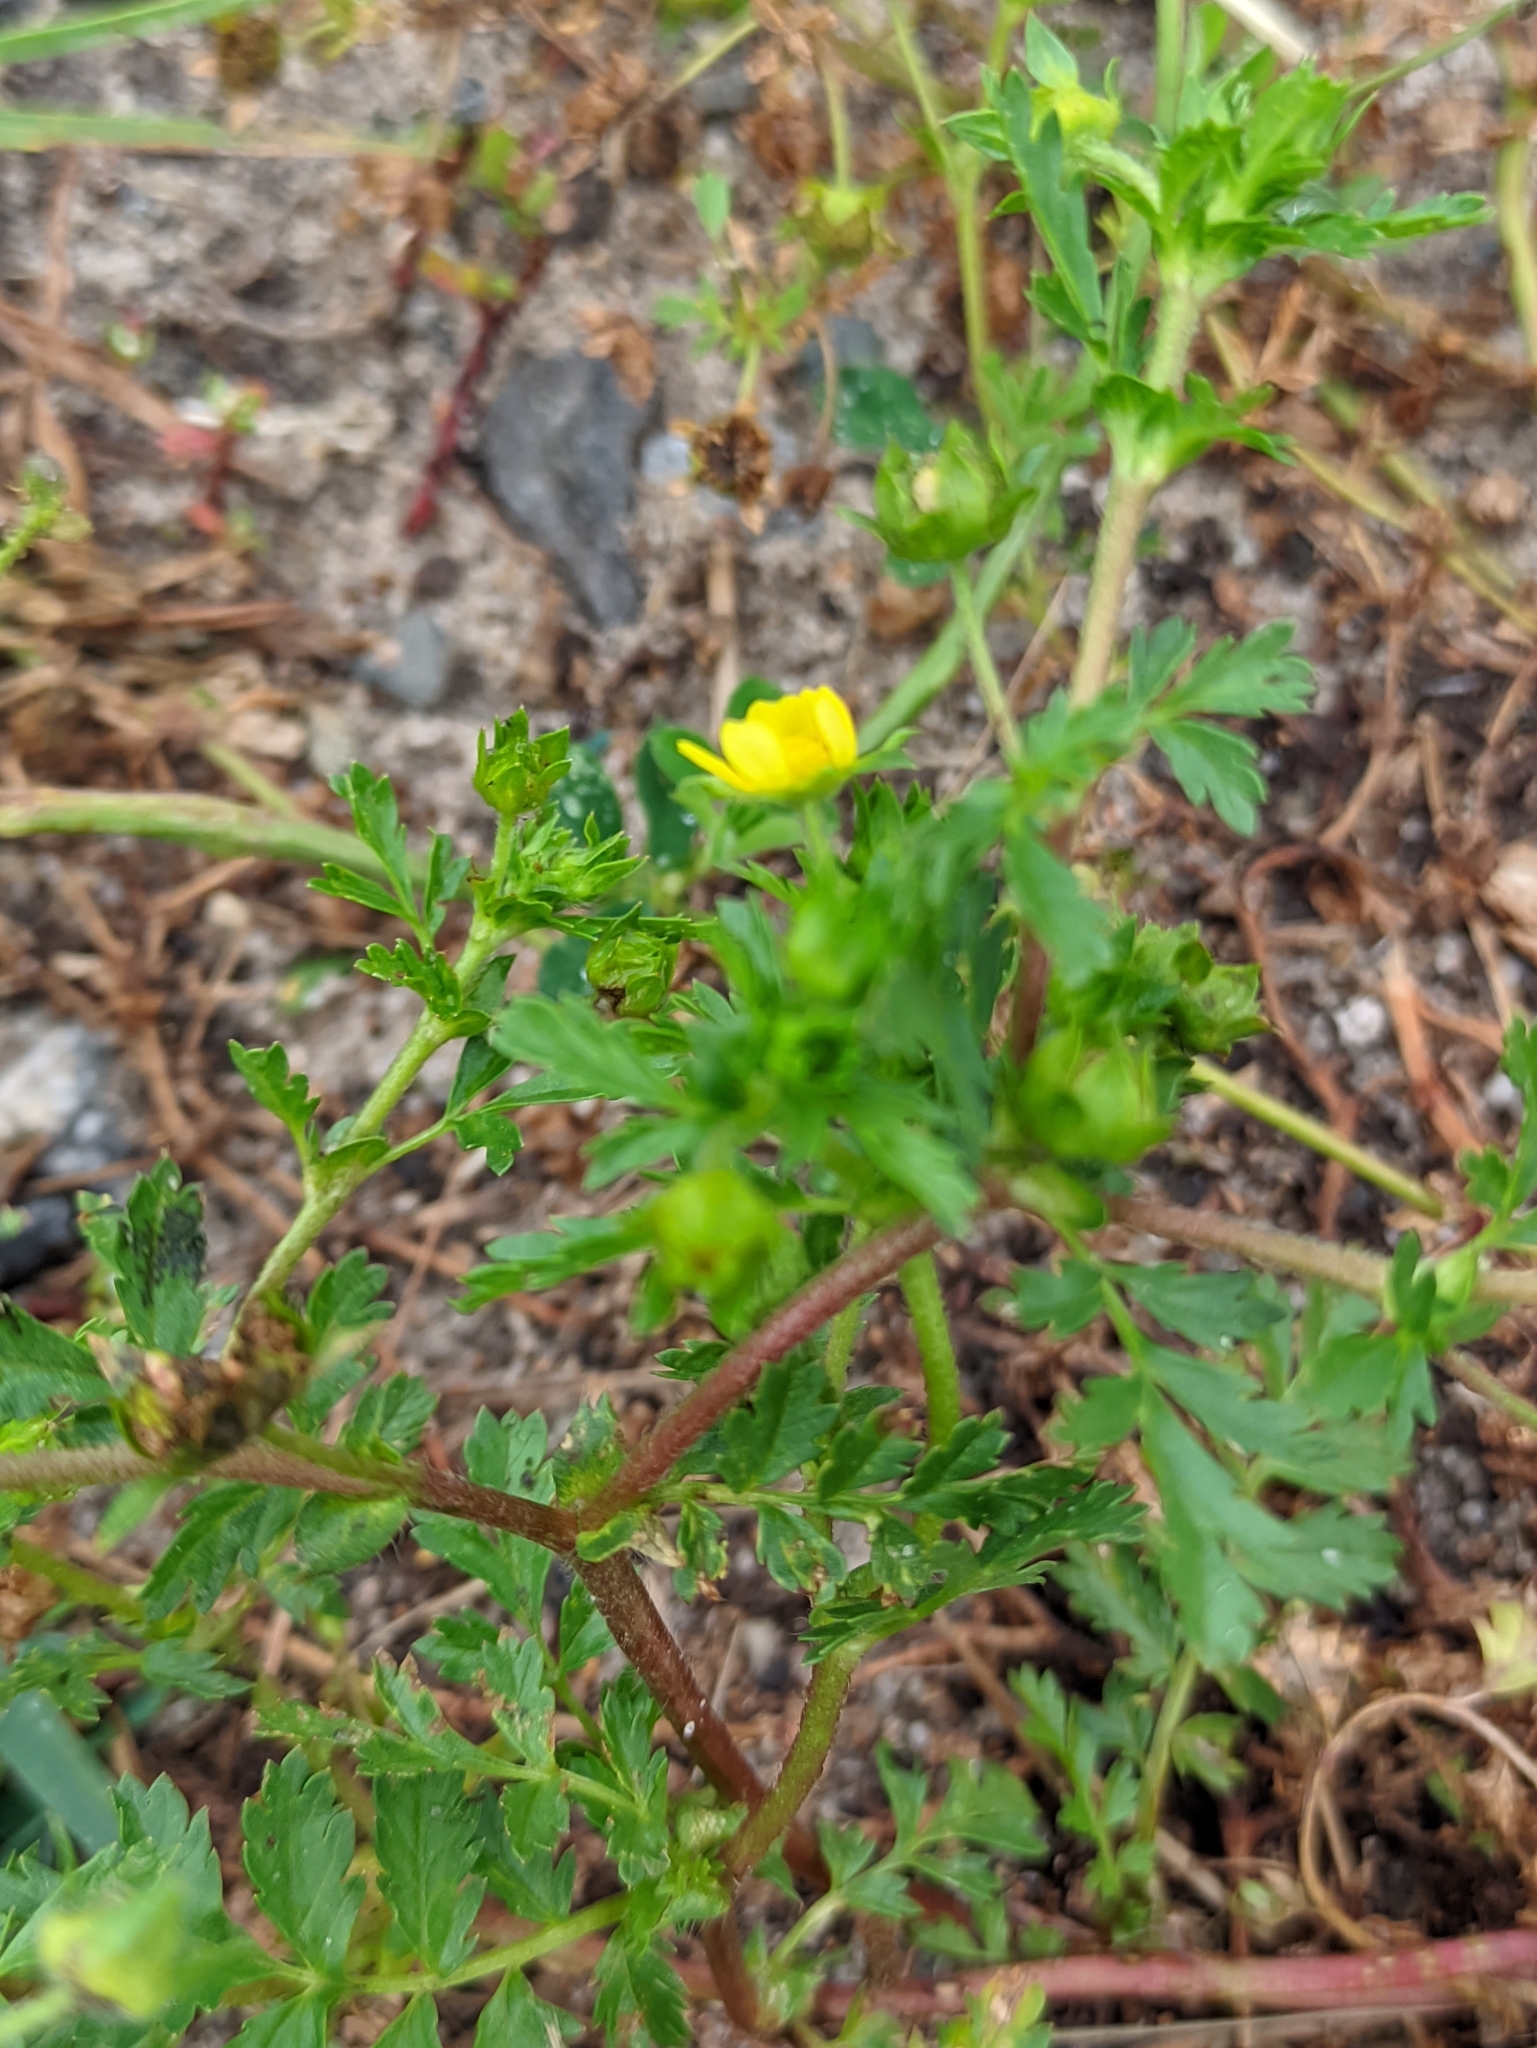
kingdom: Plantae
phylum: Tracheophyta
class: Magnoliopsida
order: Rosales
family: Rosaceae
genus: Potentilla
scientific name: Potentilla supina
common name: Prostrate cinquefoil
